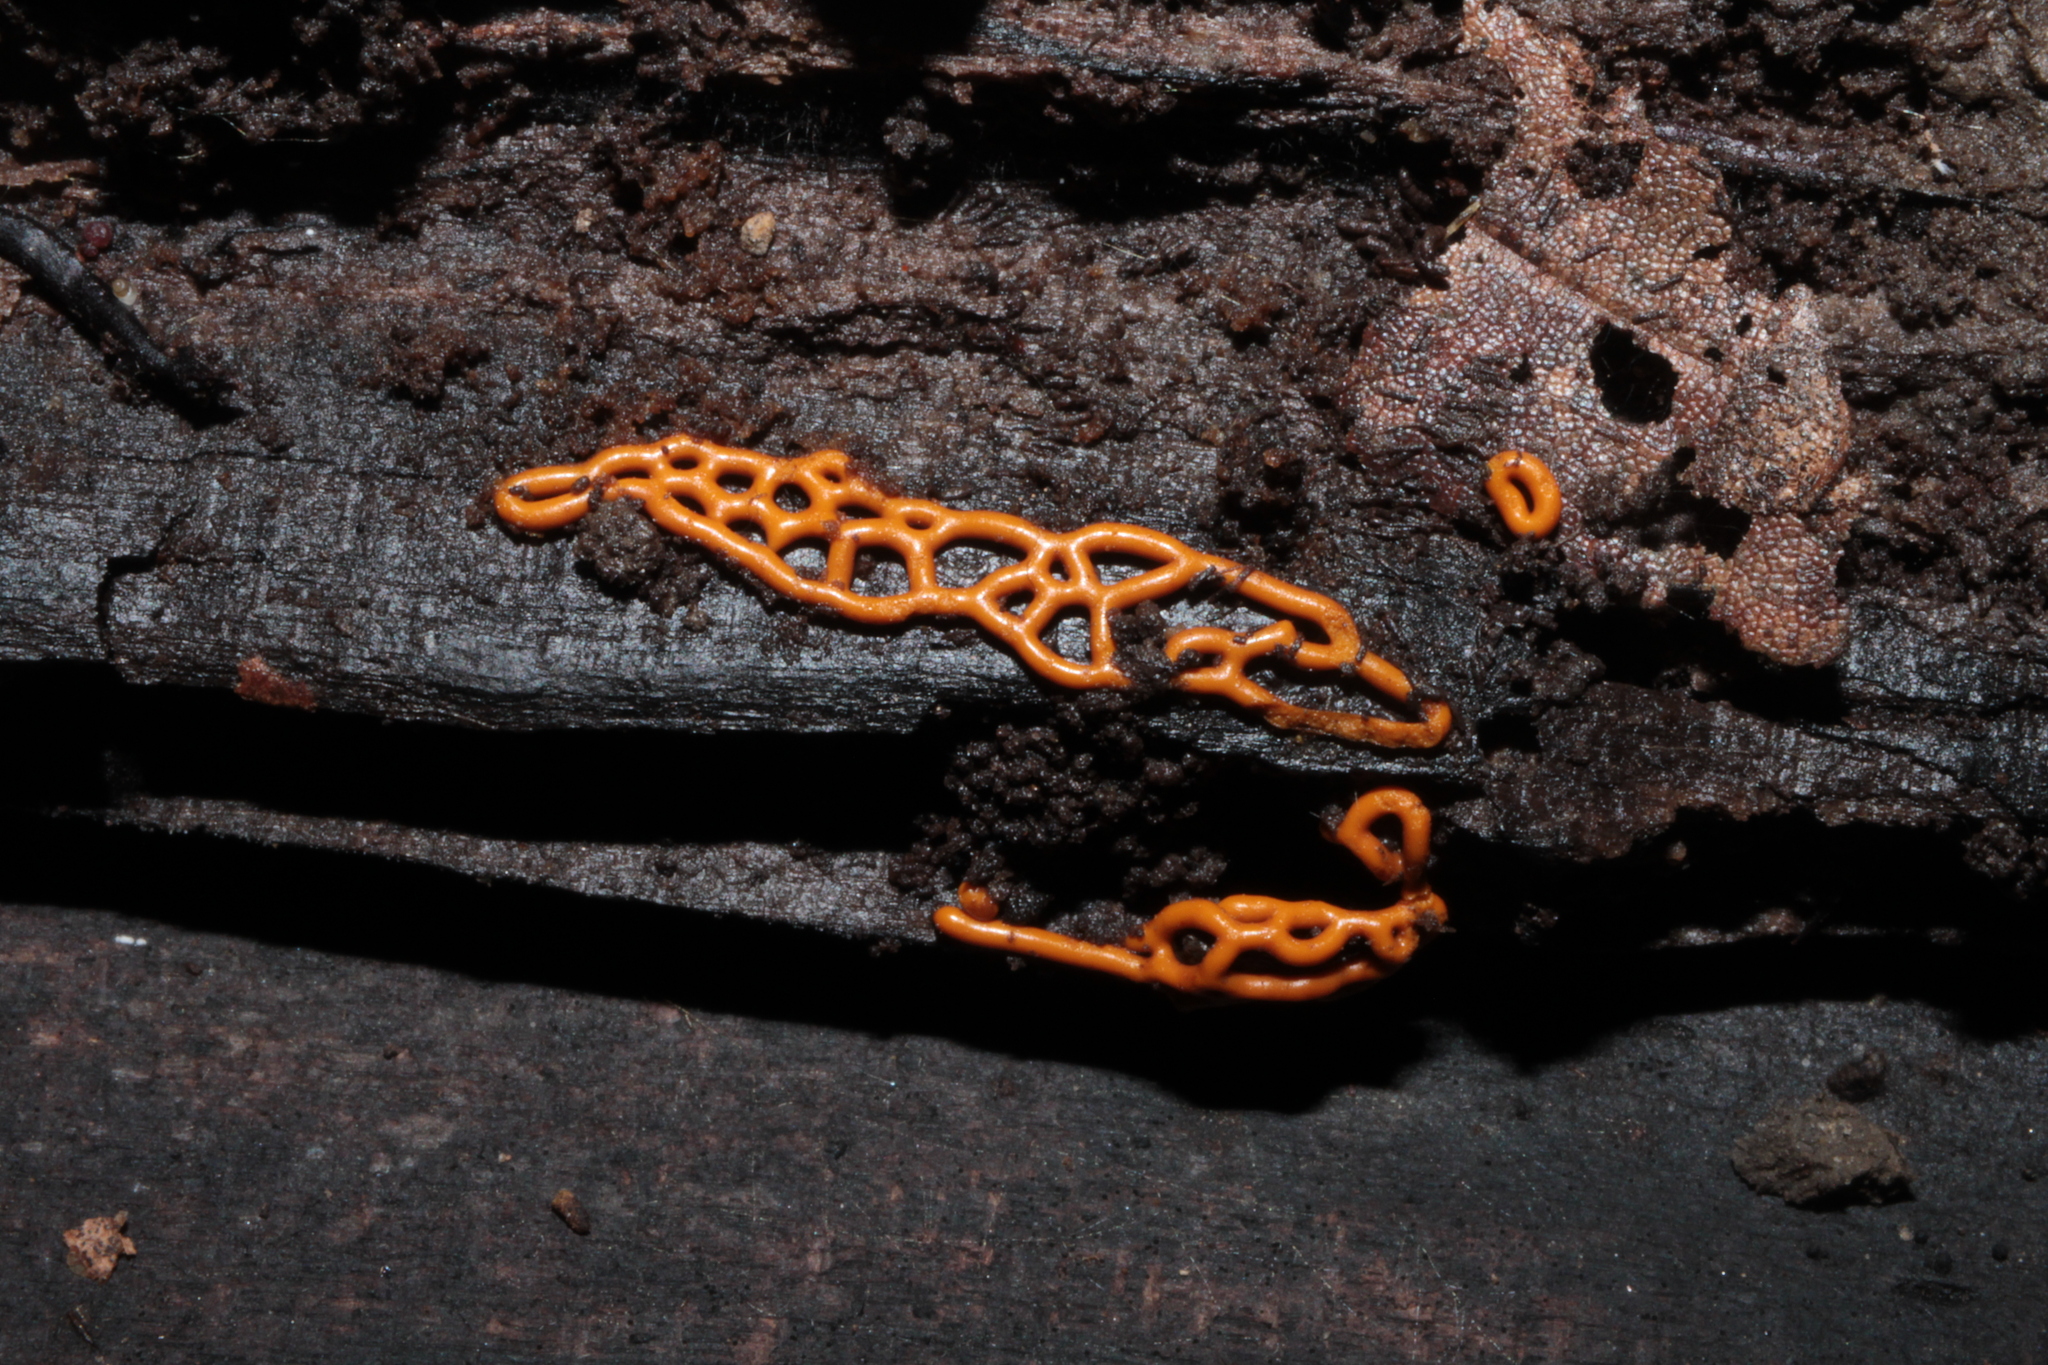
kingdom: Protozoa
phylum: Mycetozoa
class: Myxomycetes
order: Trichiales
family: Arcyriaceae
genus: Hemitrichia
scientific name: Hemitrichia serpula
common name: Pretzel slime mold
